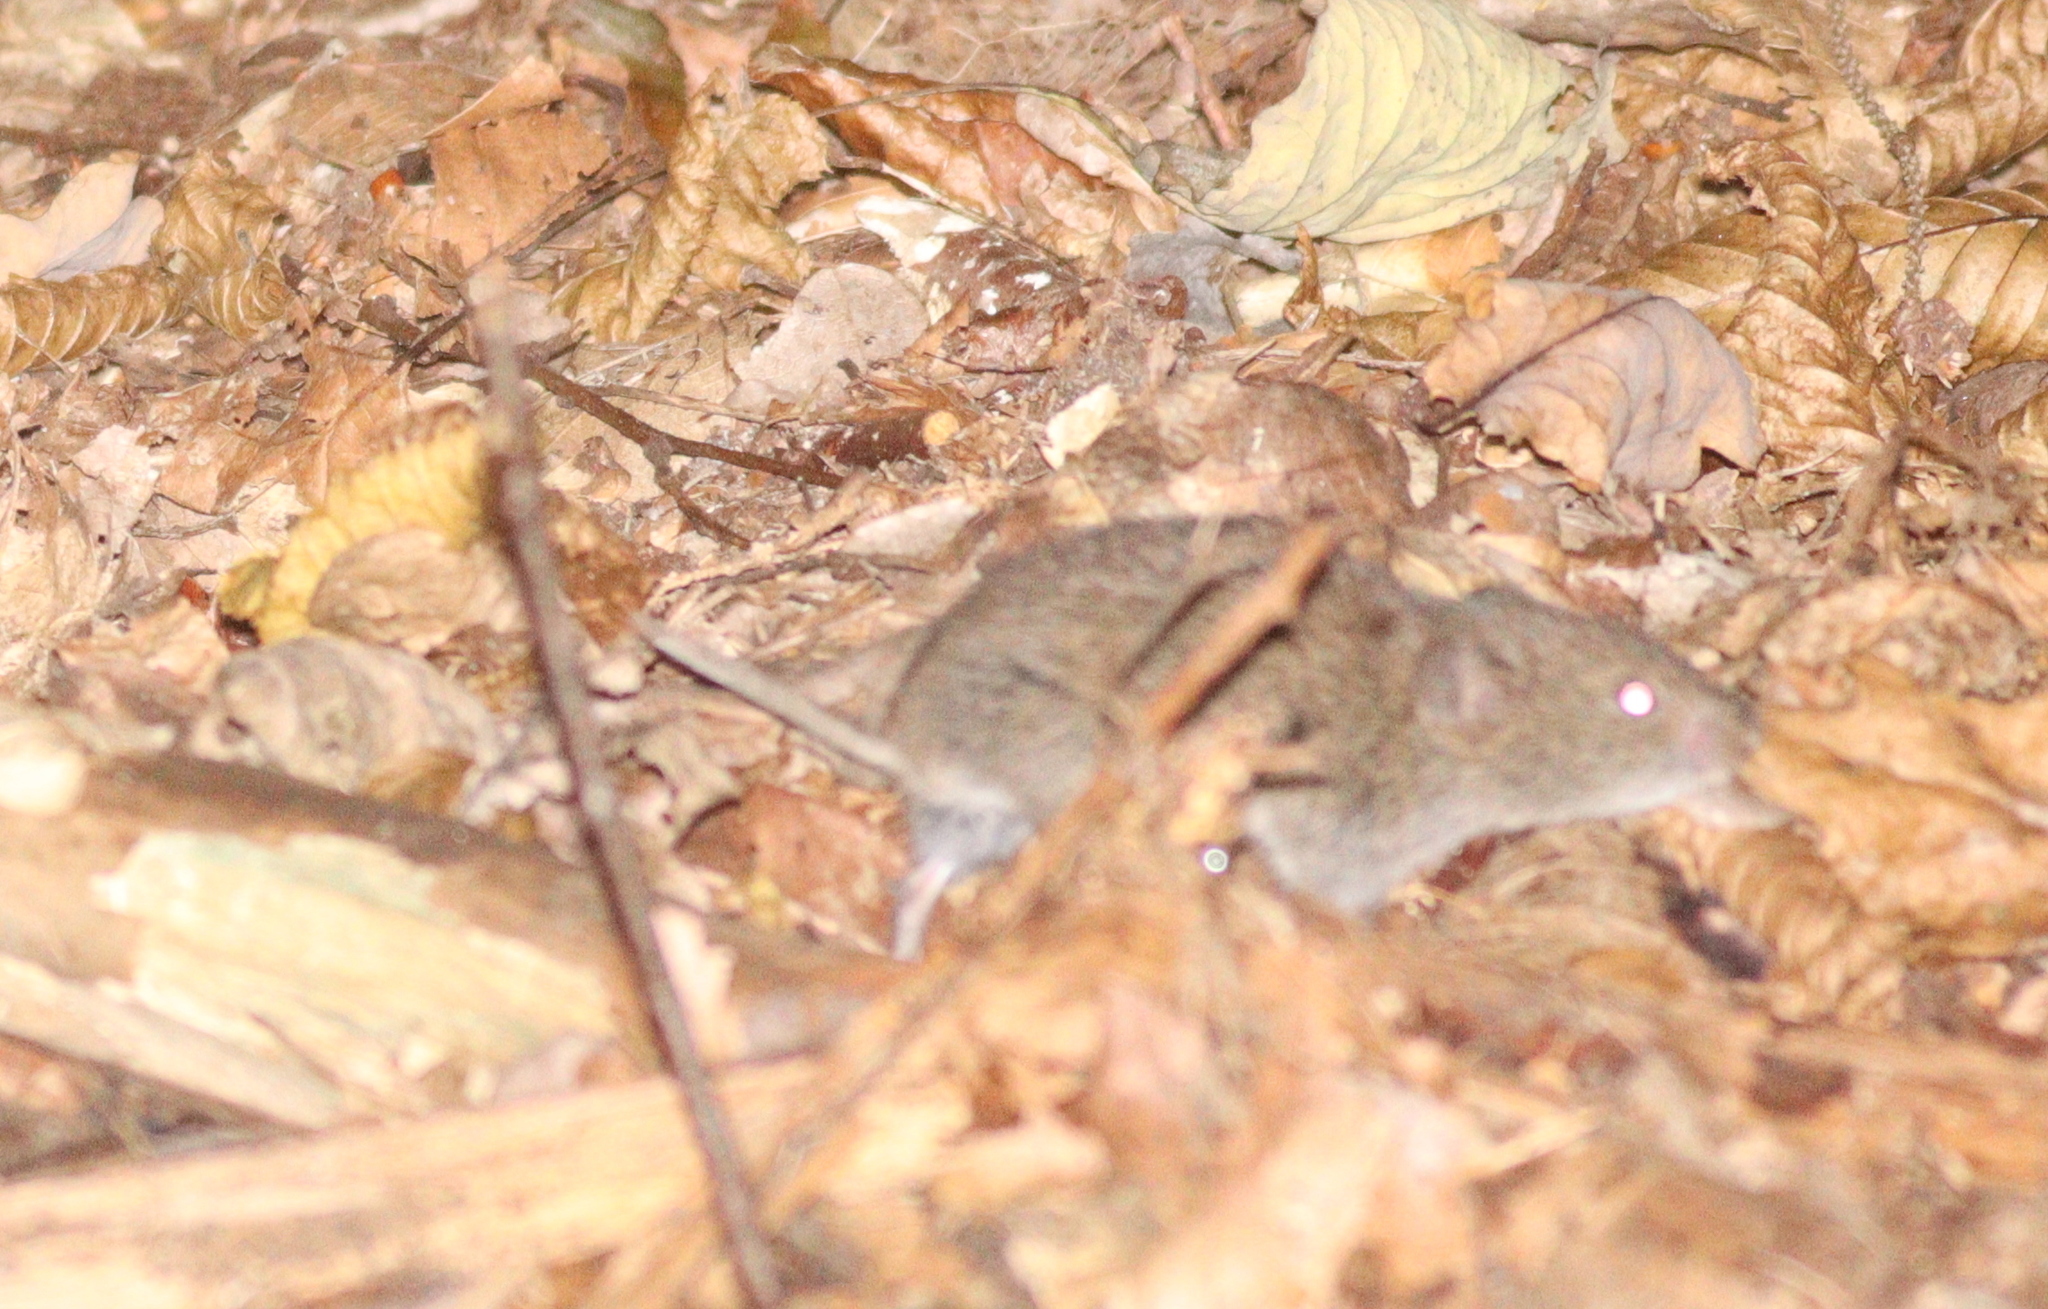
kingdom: Animalia
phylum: Chordata
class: Mammalia
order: Rodentia
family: Cricetidae
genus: Microtus
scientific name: Microtus arvalis
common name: Common vole
